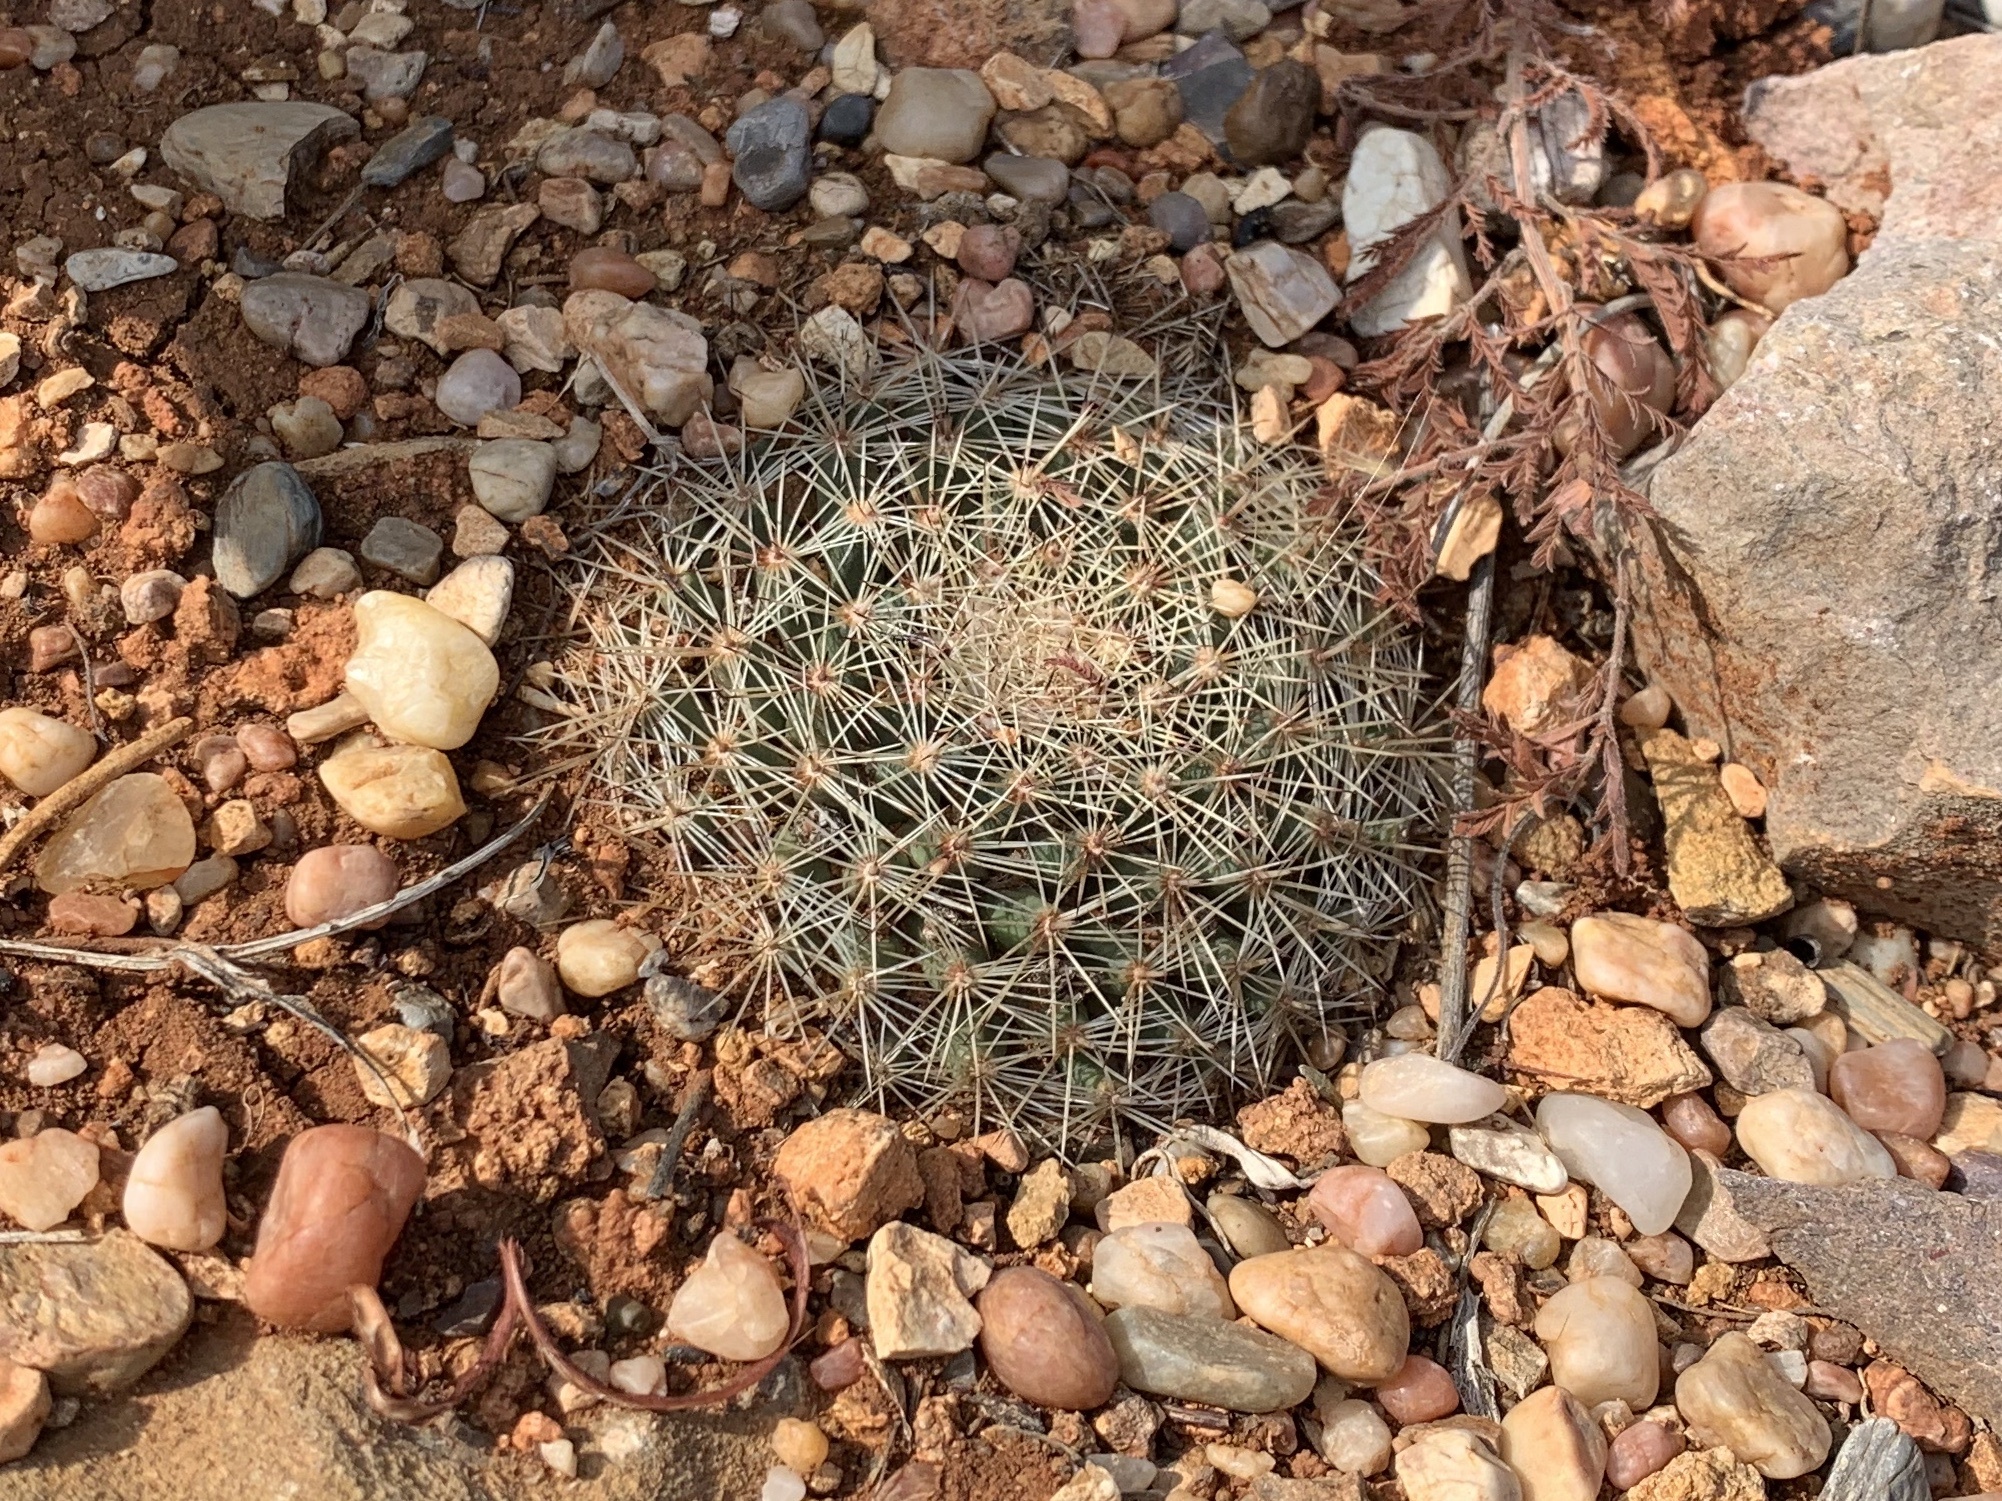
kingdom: Plantae
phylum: Tracheophyta
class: Magnoliopsida
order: Caryophyllales
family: Cactaceae
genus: Mammillaria
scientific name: Mammillaria heyderi
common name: Little nipple cactus
